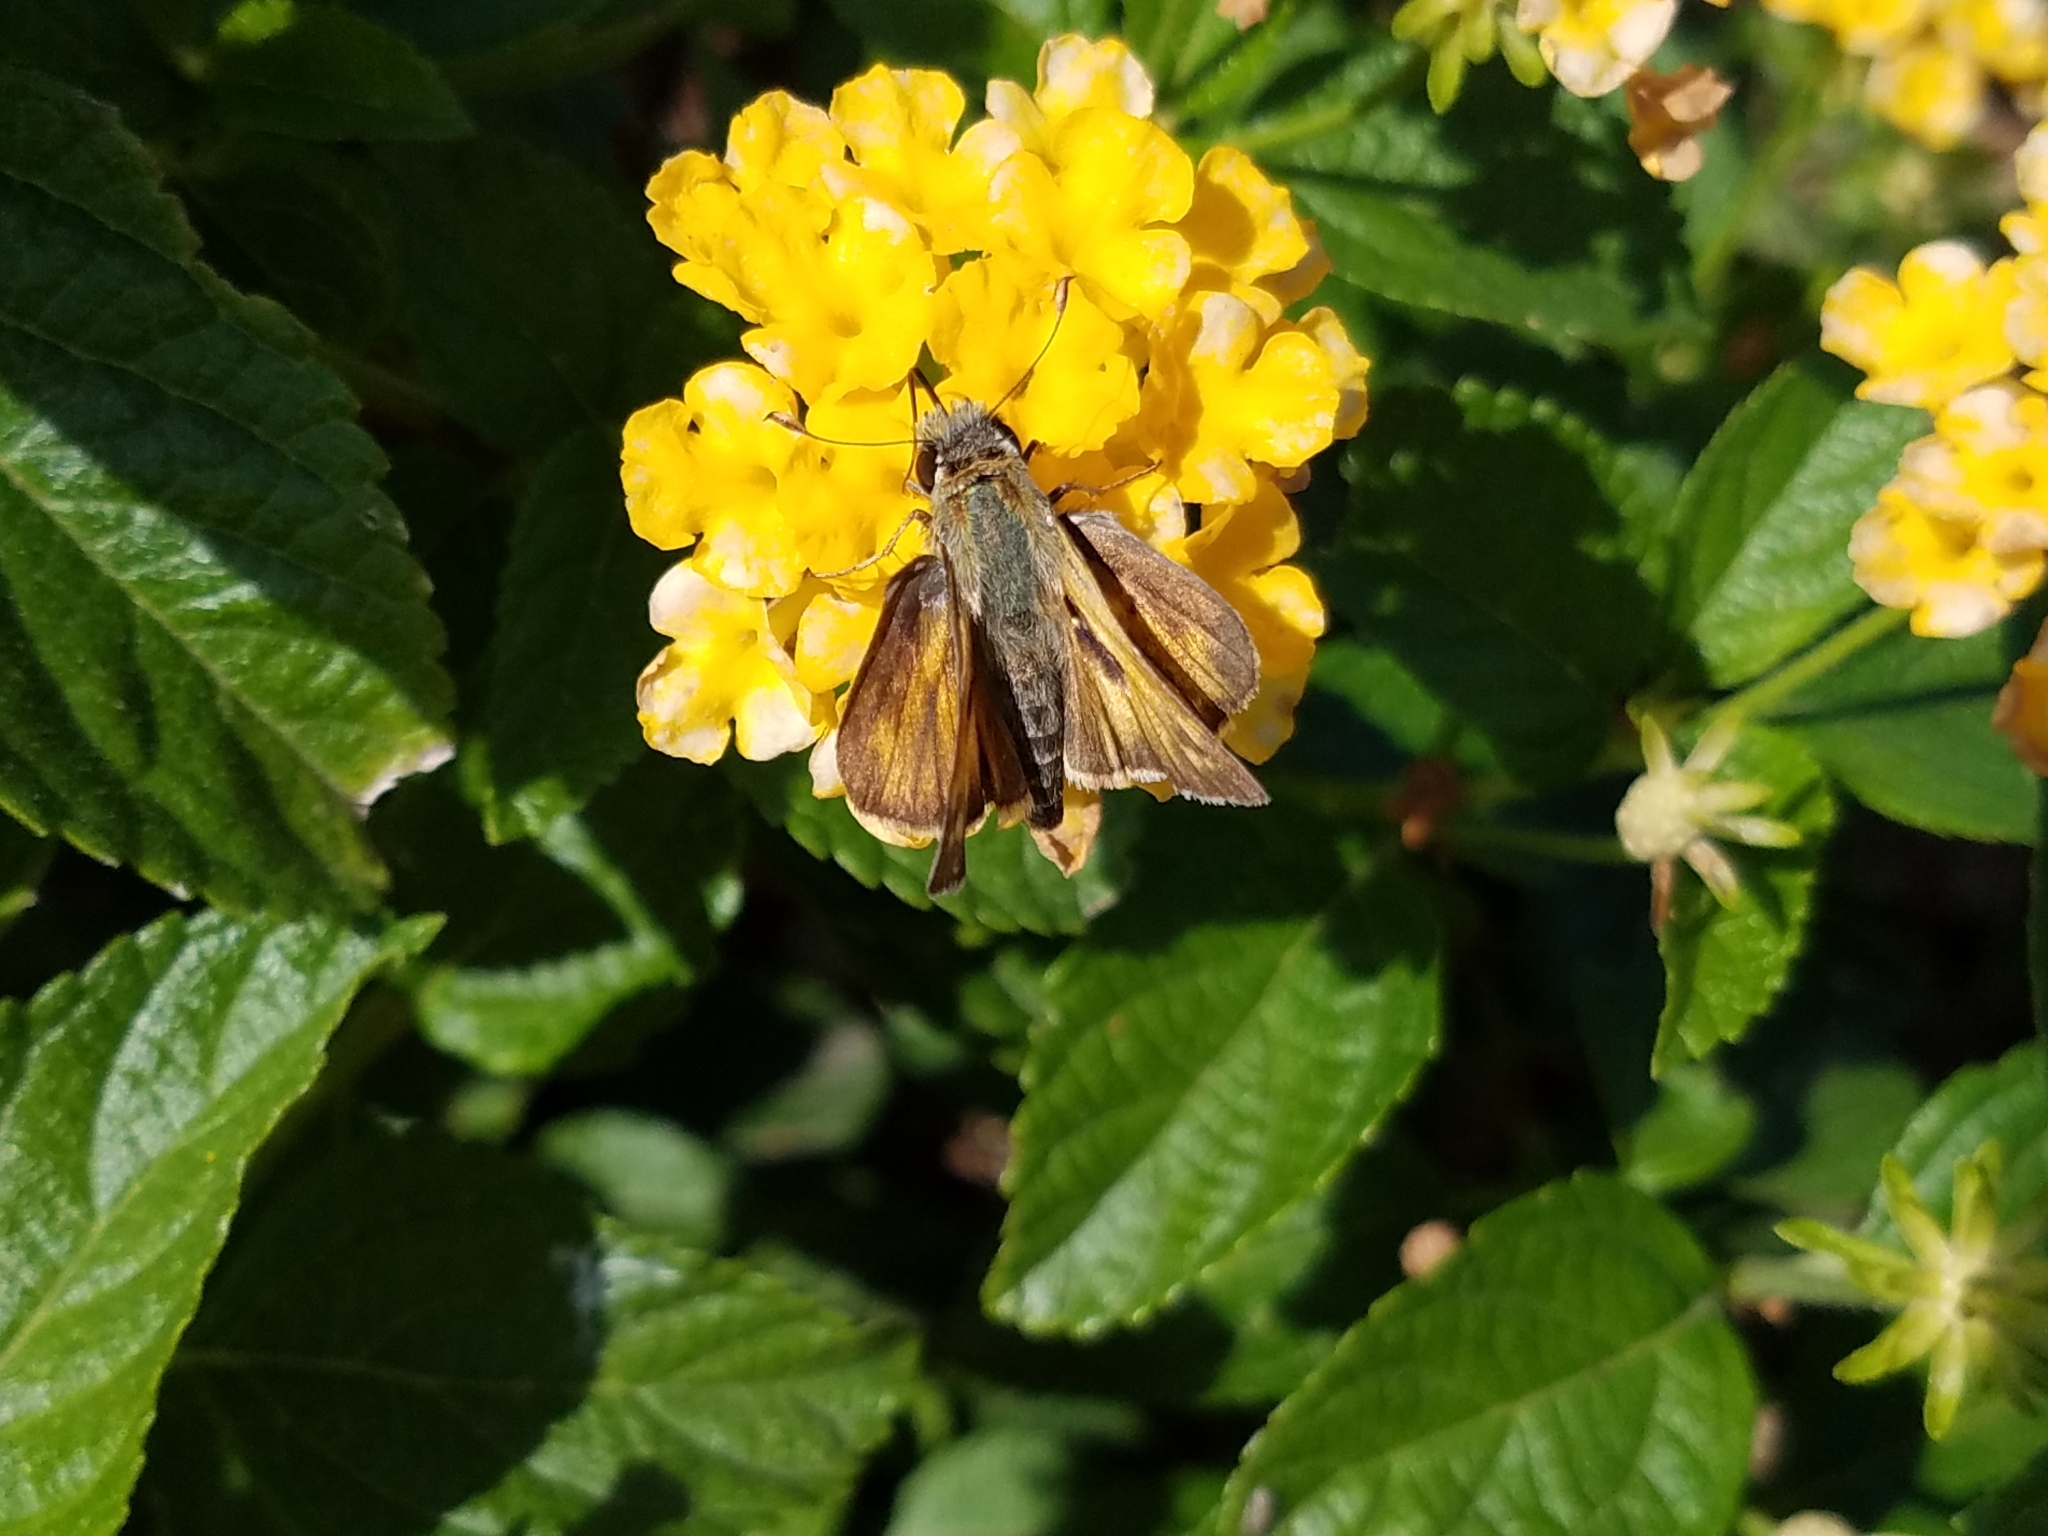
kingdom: Animalia
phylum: Arthropoda
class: Insecta
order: Lepidoptera
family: Hesperiidae
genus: Atalopedes
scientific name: Atalopedes
